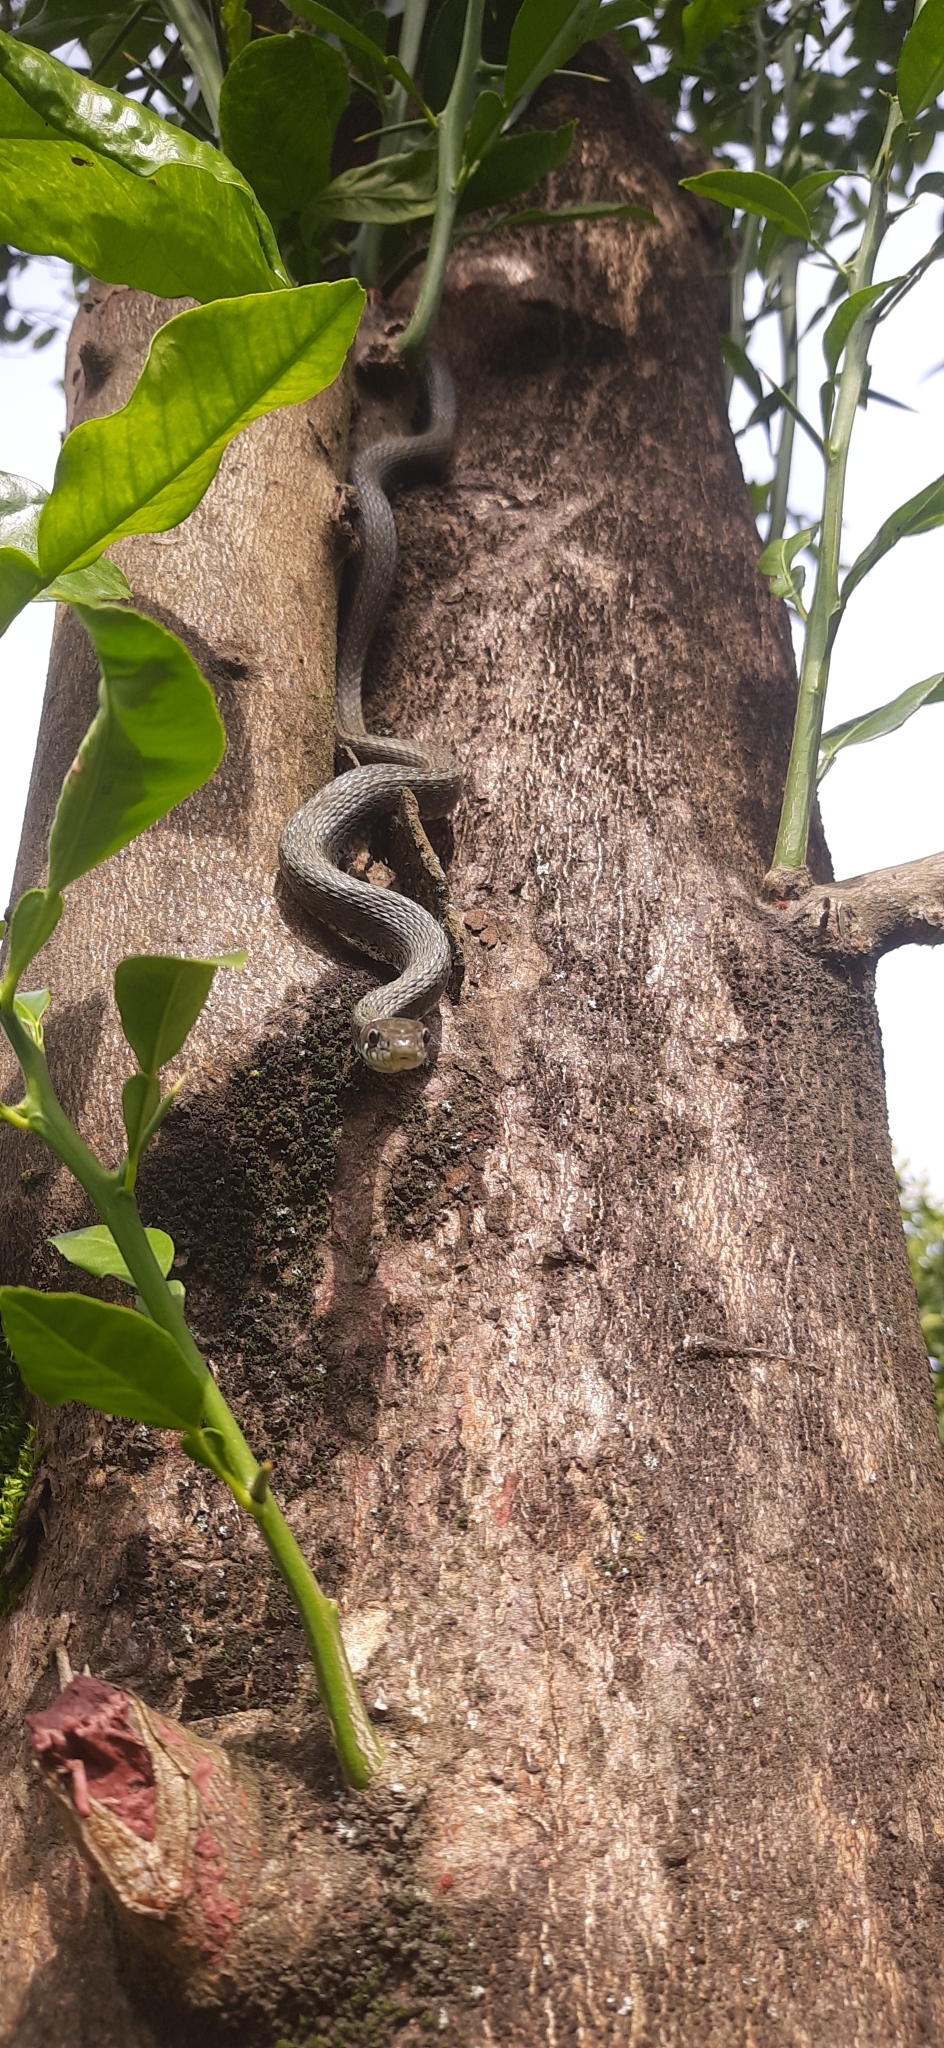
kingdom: Animalia
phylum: Chordata
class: Squamata
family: Colubridae
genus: Natrix
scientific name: Natrix natrix
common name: Grass snake
